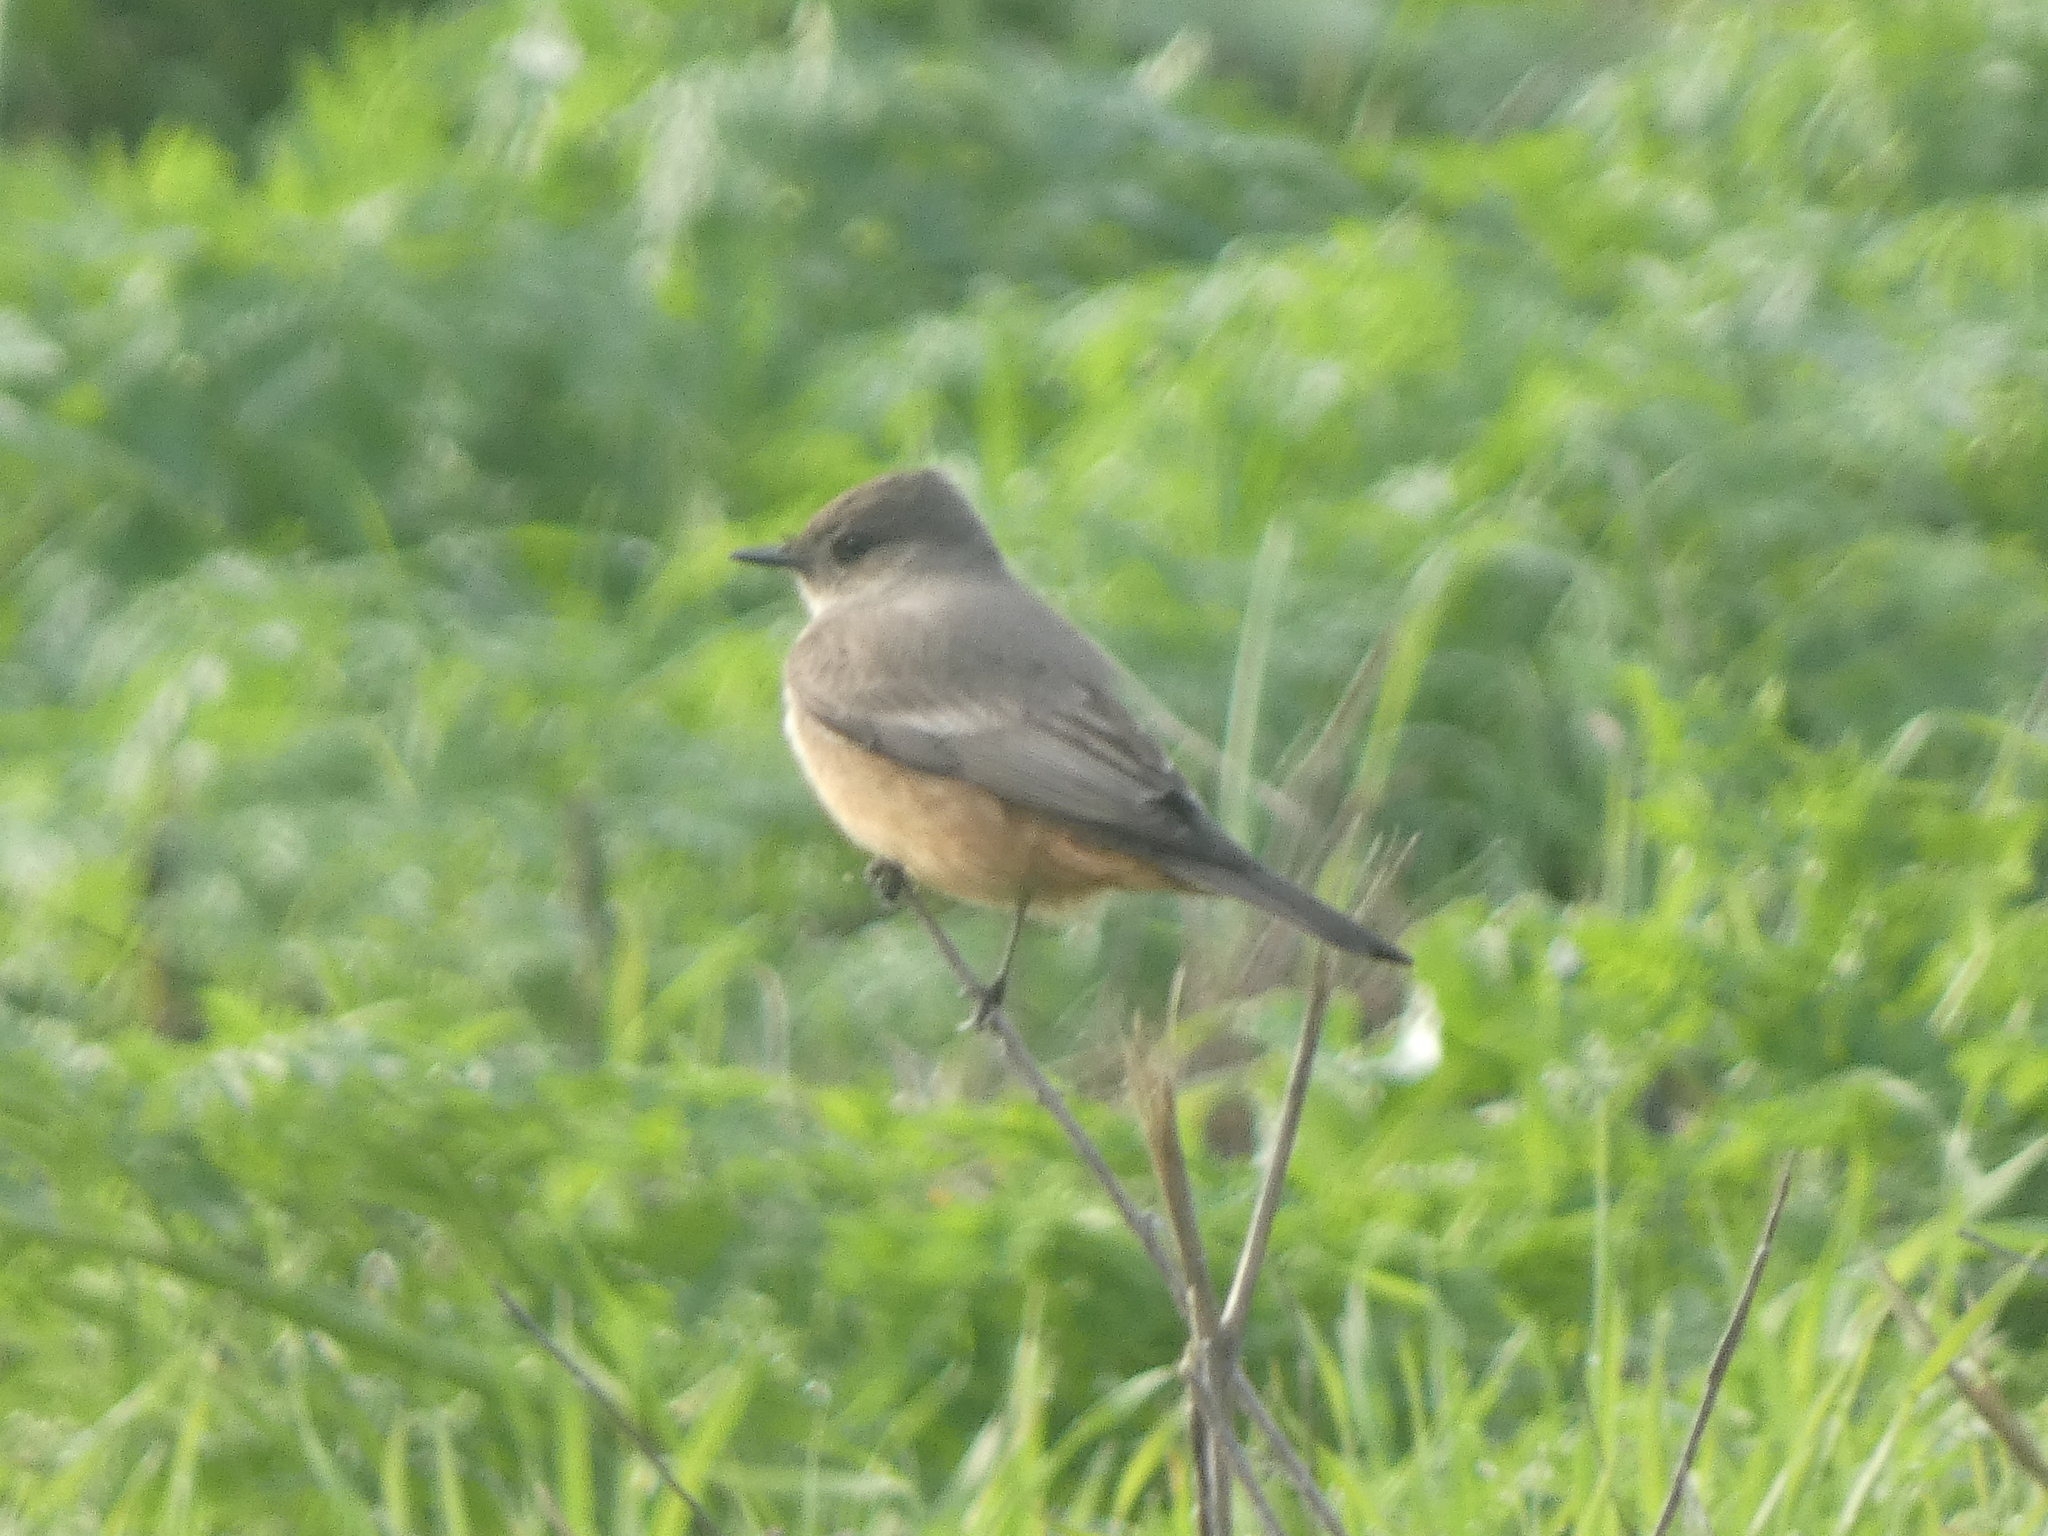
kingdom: Animalia
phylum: Chordata
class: Aves
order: Passeriformes
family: Tyrannidae
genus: Sayornis
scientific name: Sayornis saya
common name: Say's phoebe
